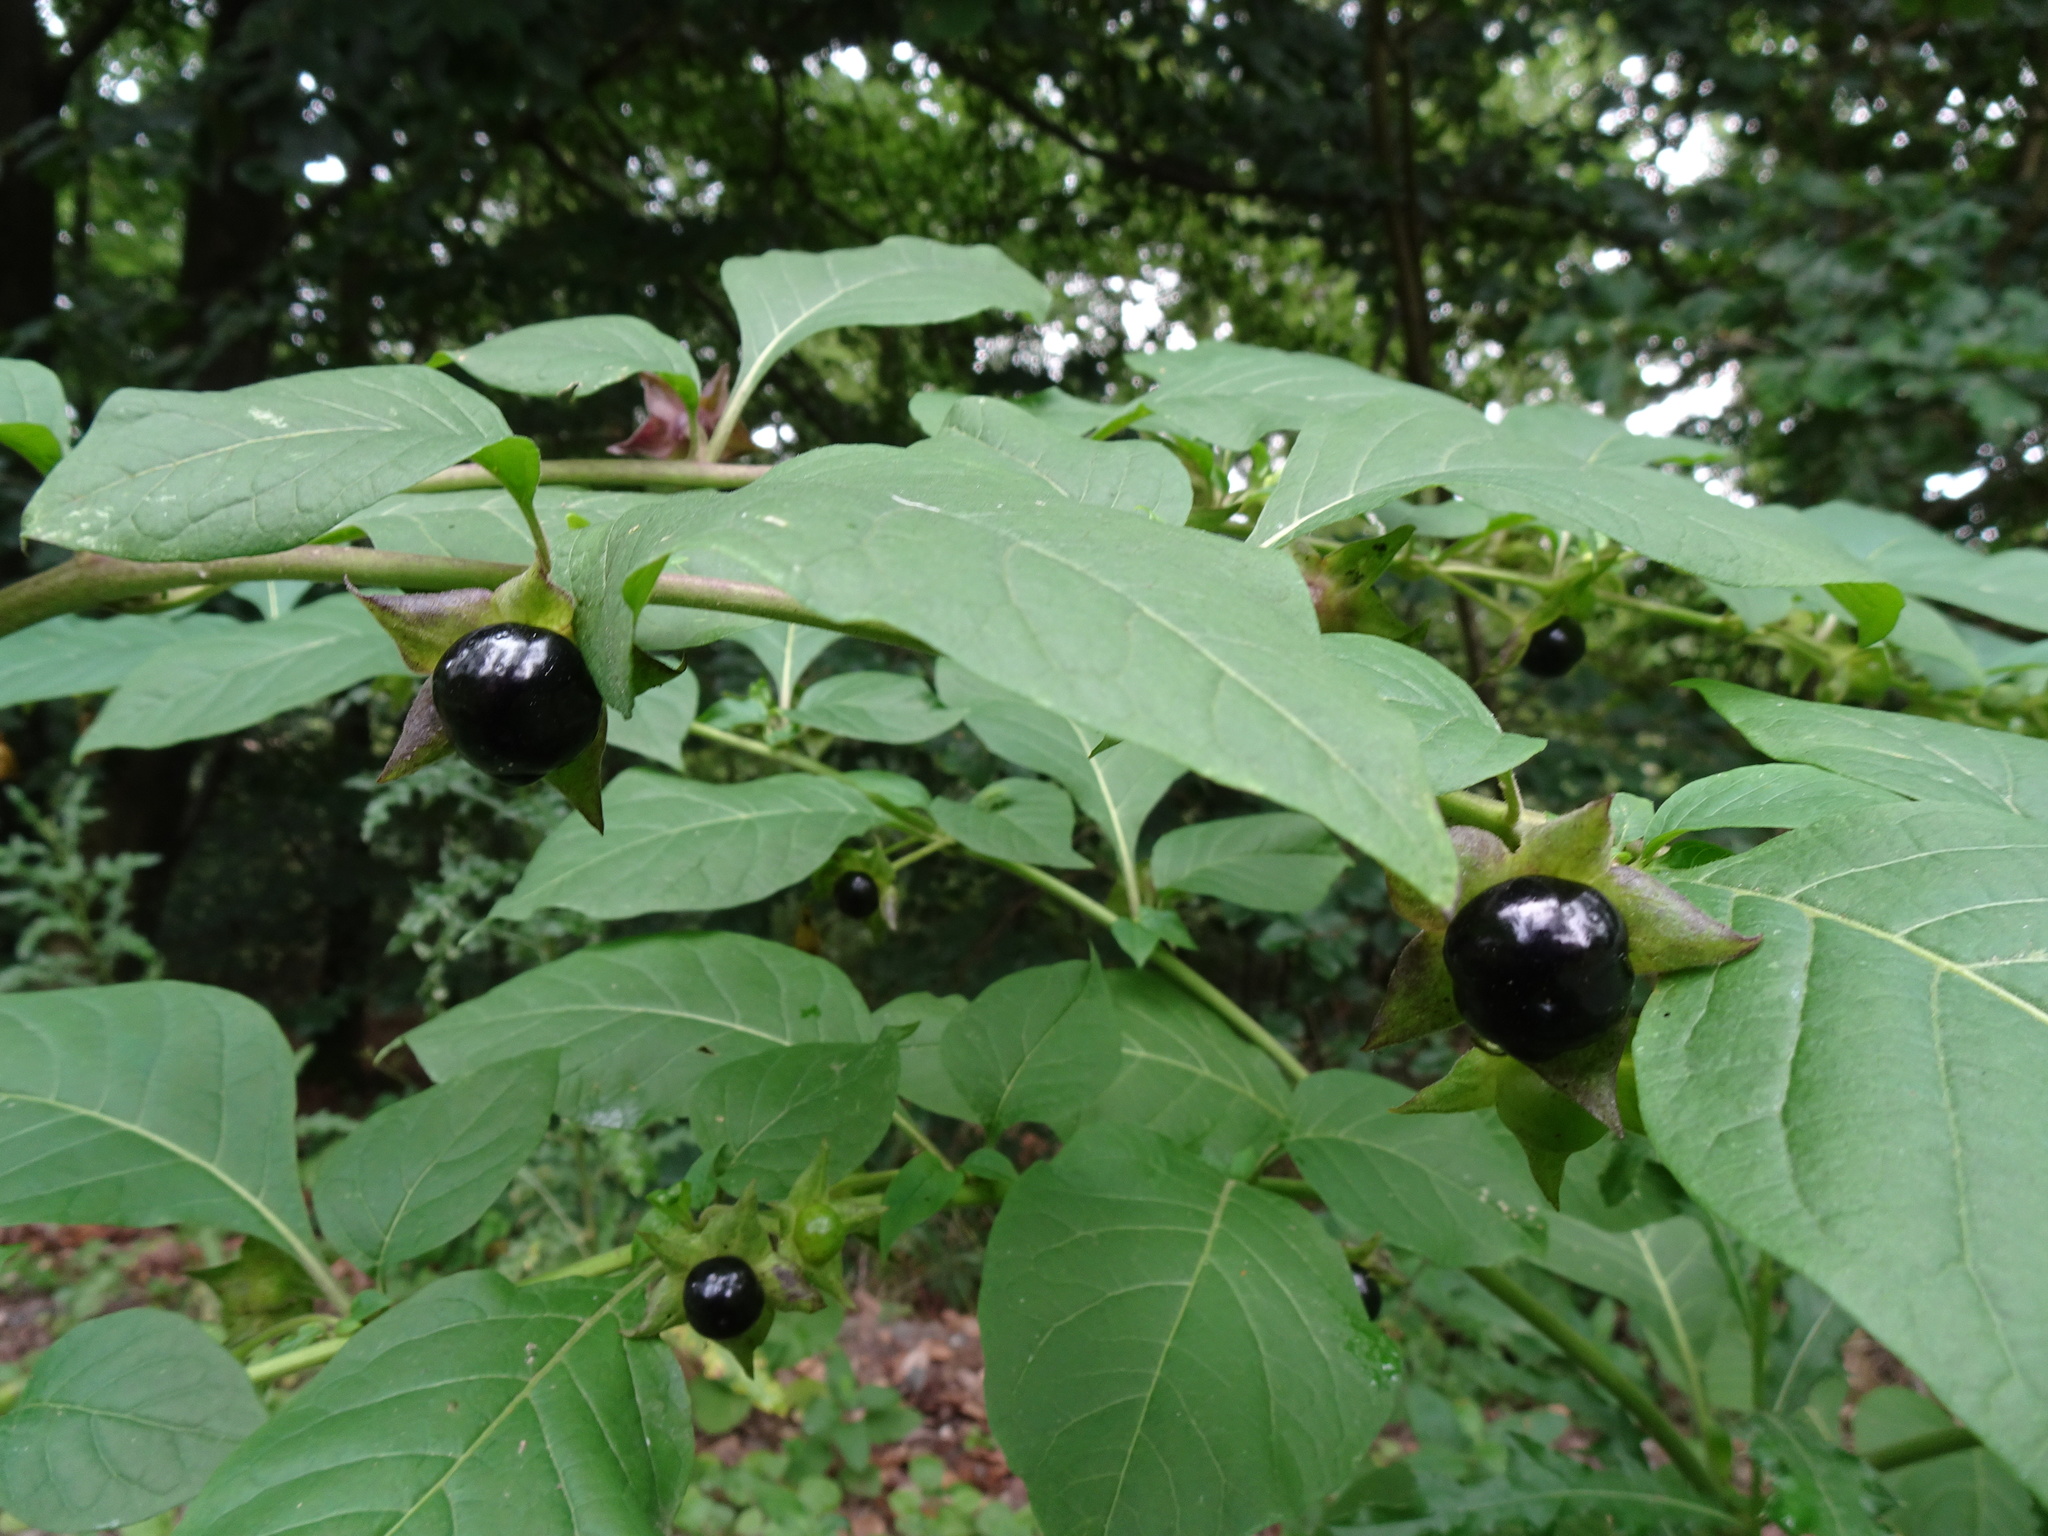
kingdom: Plantae
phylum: Tracheophyta
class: Magnoliopsida
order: Solanales
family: Solanaceae
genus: Atropa
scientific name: Atropa belladonna
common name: Deadly nightshade
